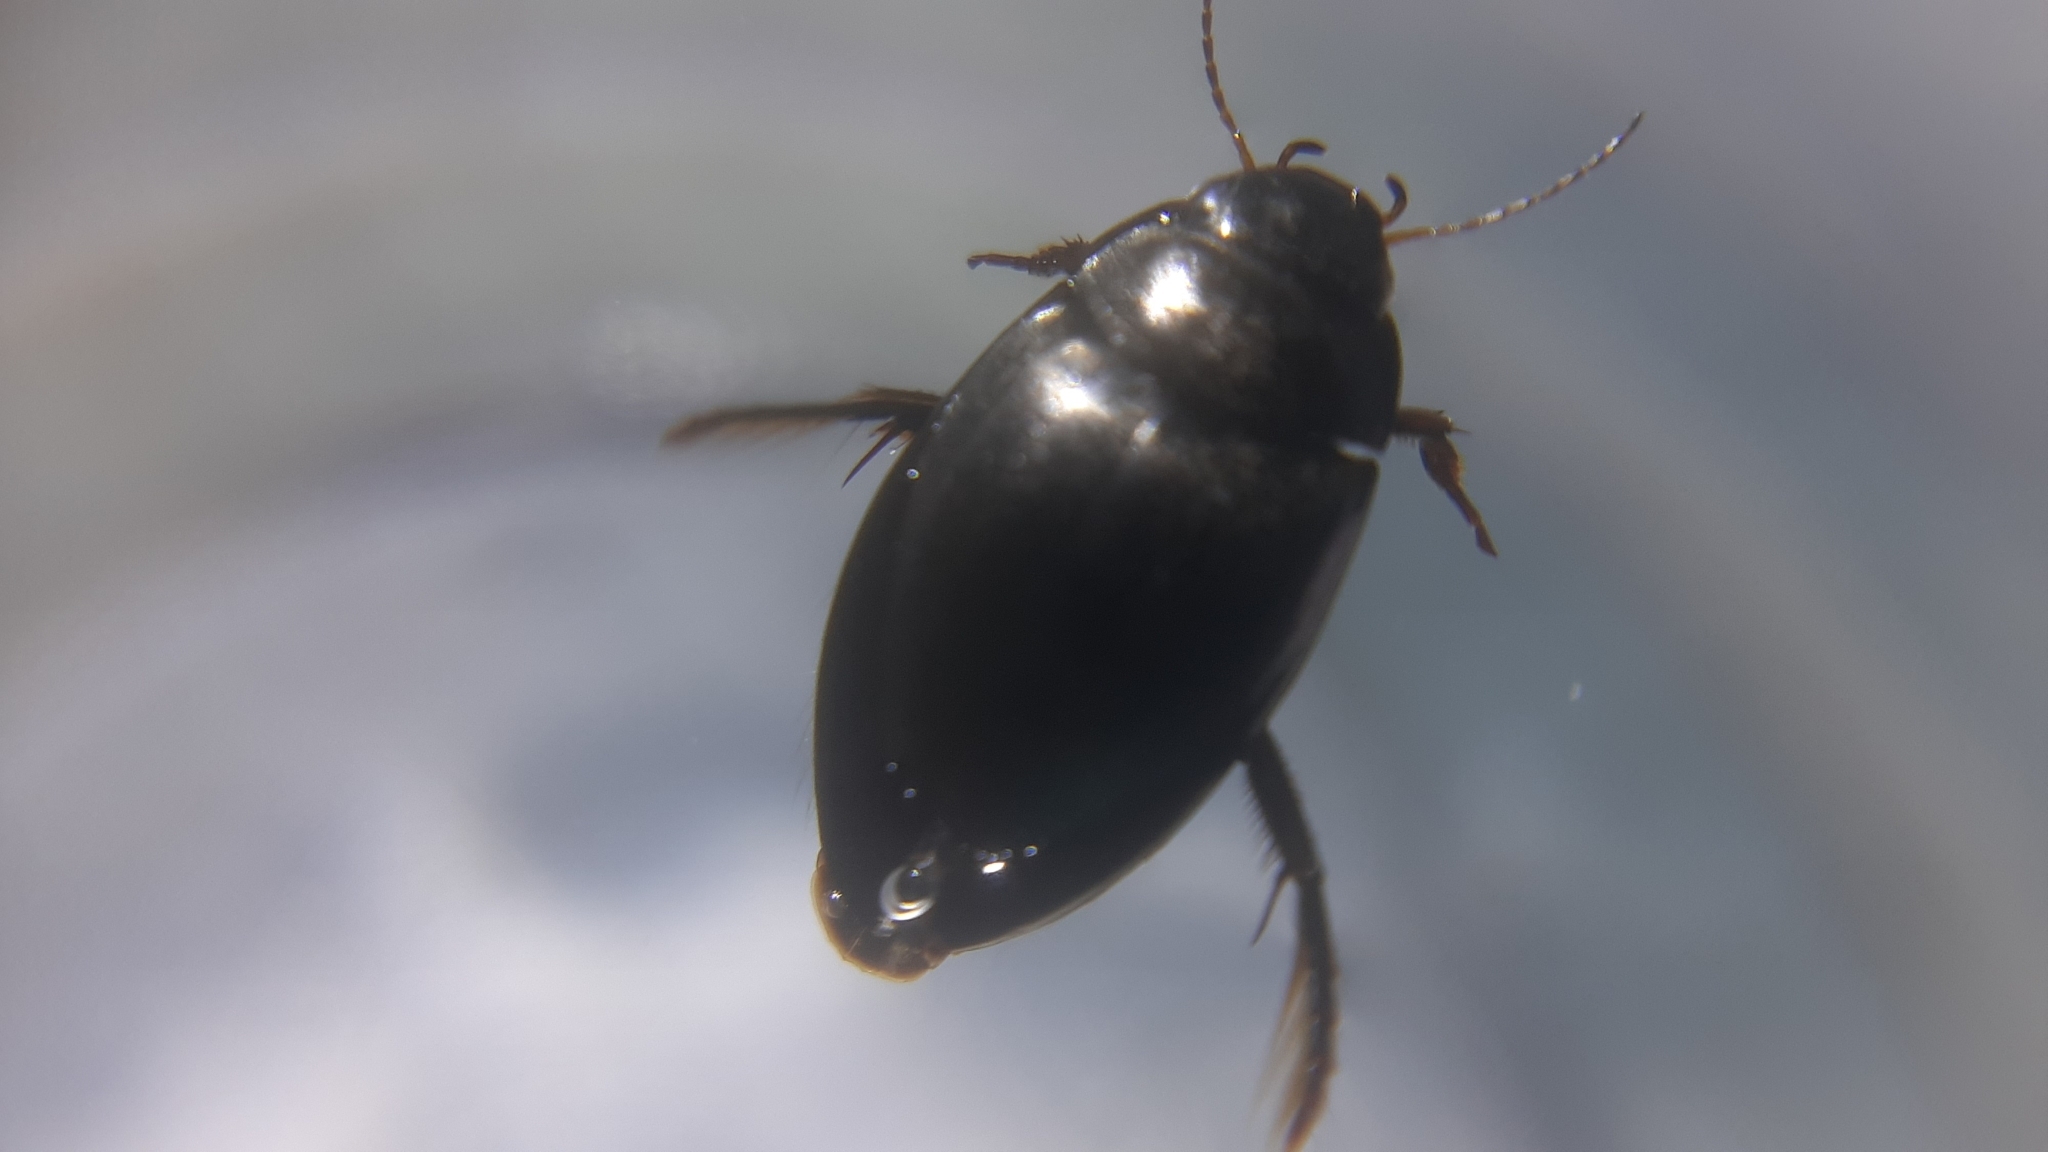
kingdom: Animalia
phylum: Arthropoda
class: Insecta
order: Coleoptera
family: Dytiscidae
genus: Agabus
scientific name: Agabus bipustulatus
